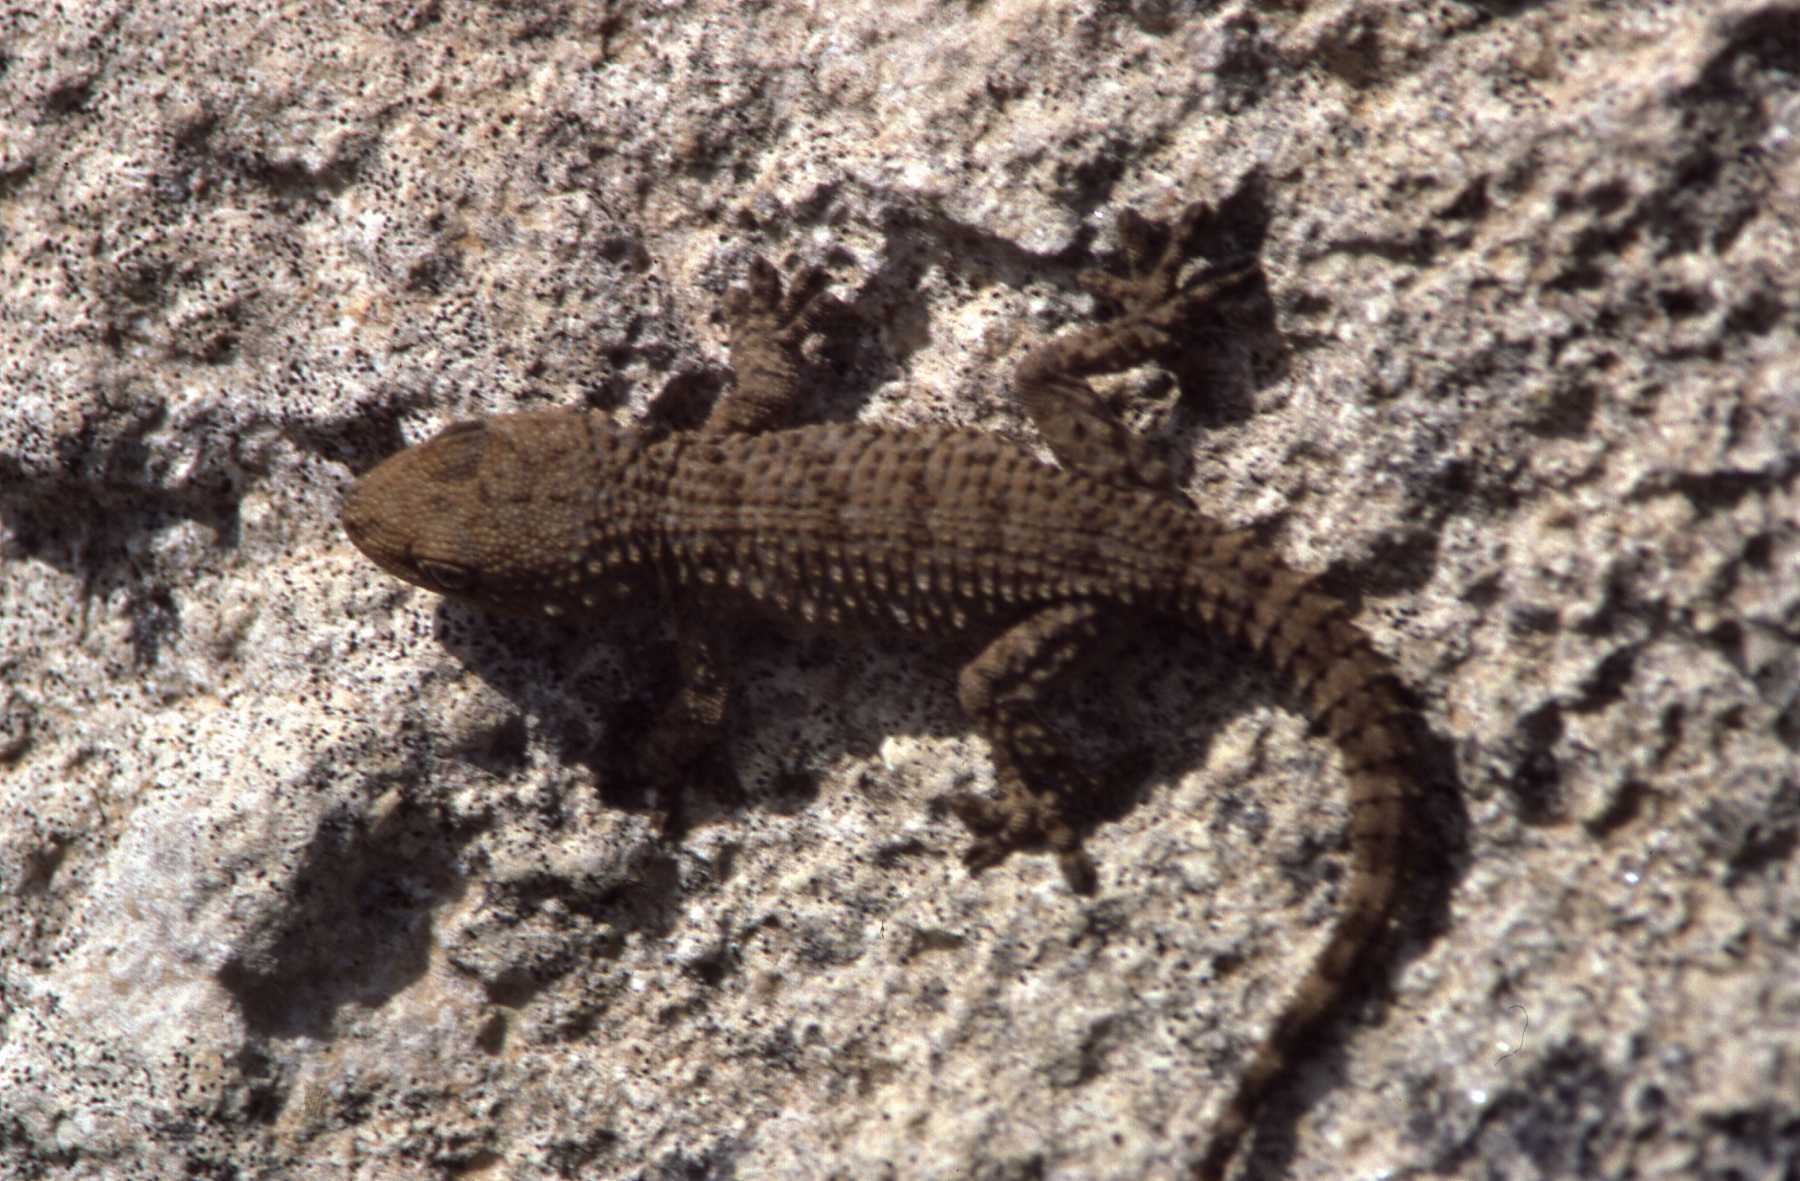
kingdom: Animalia
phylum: Chordata
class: Squamata
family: Phyllodactylidae
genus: Tarentola
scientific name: Tarentola mauritanica
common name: Moorish gecko
